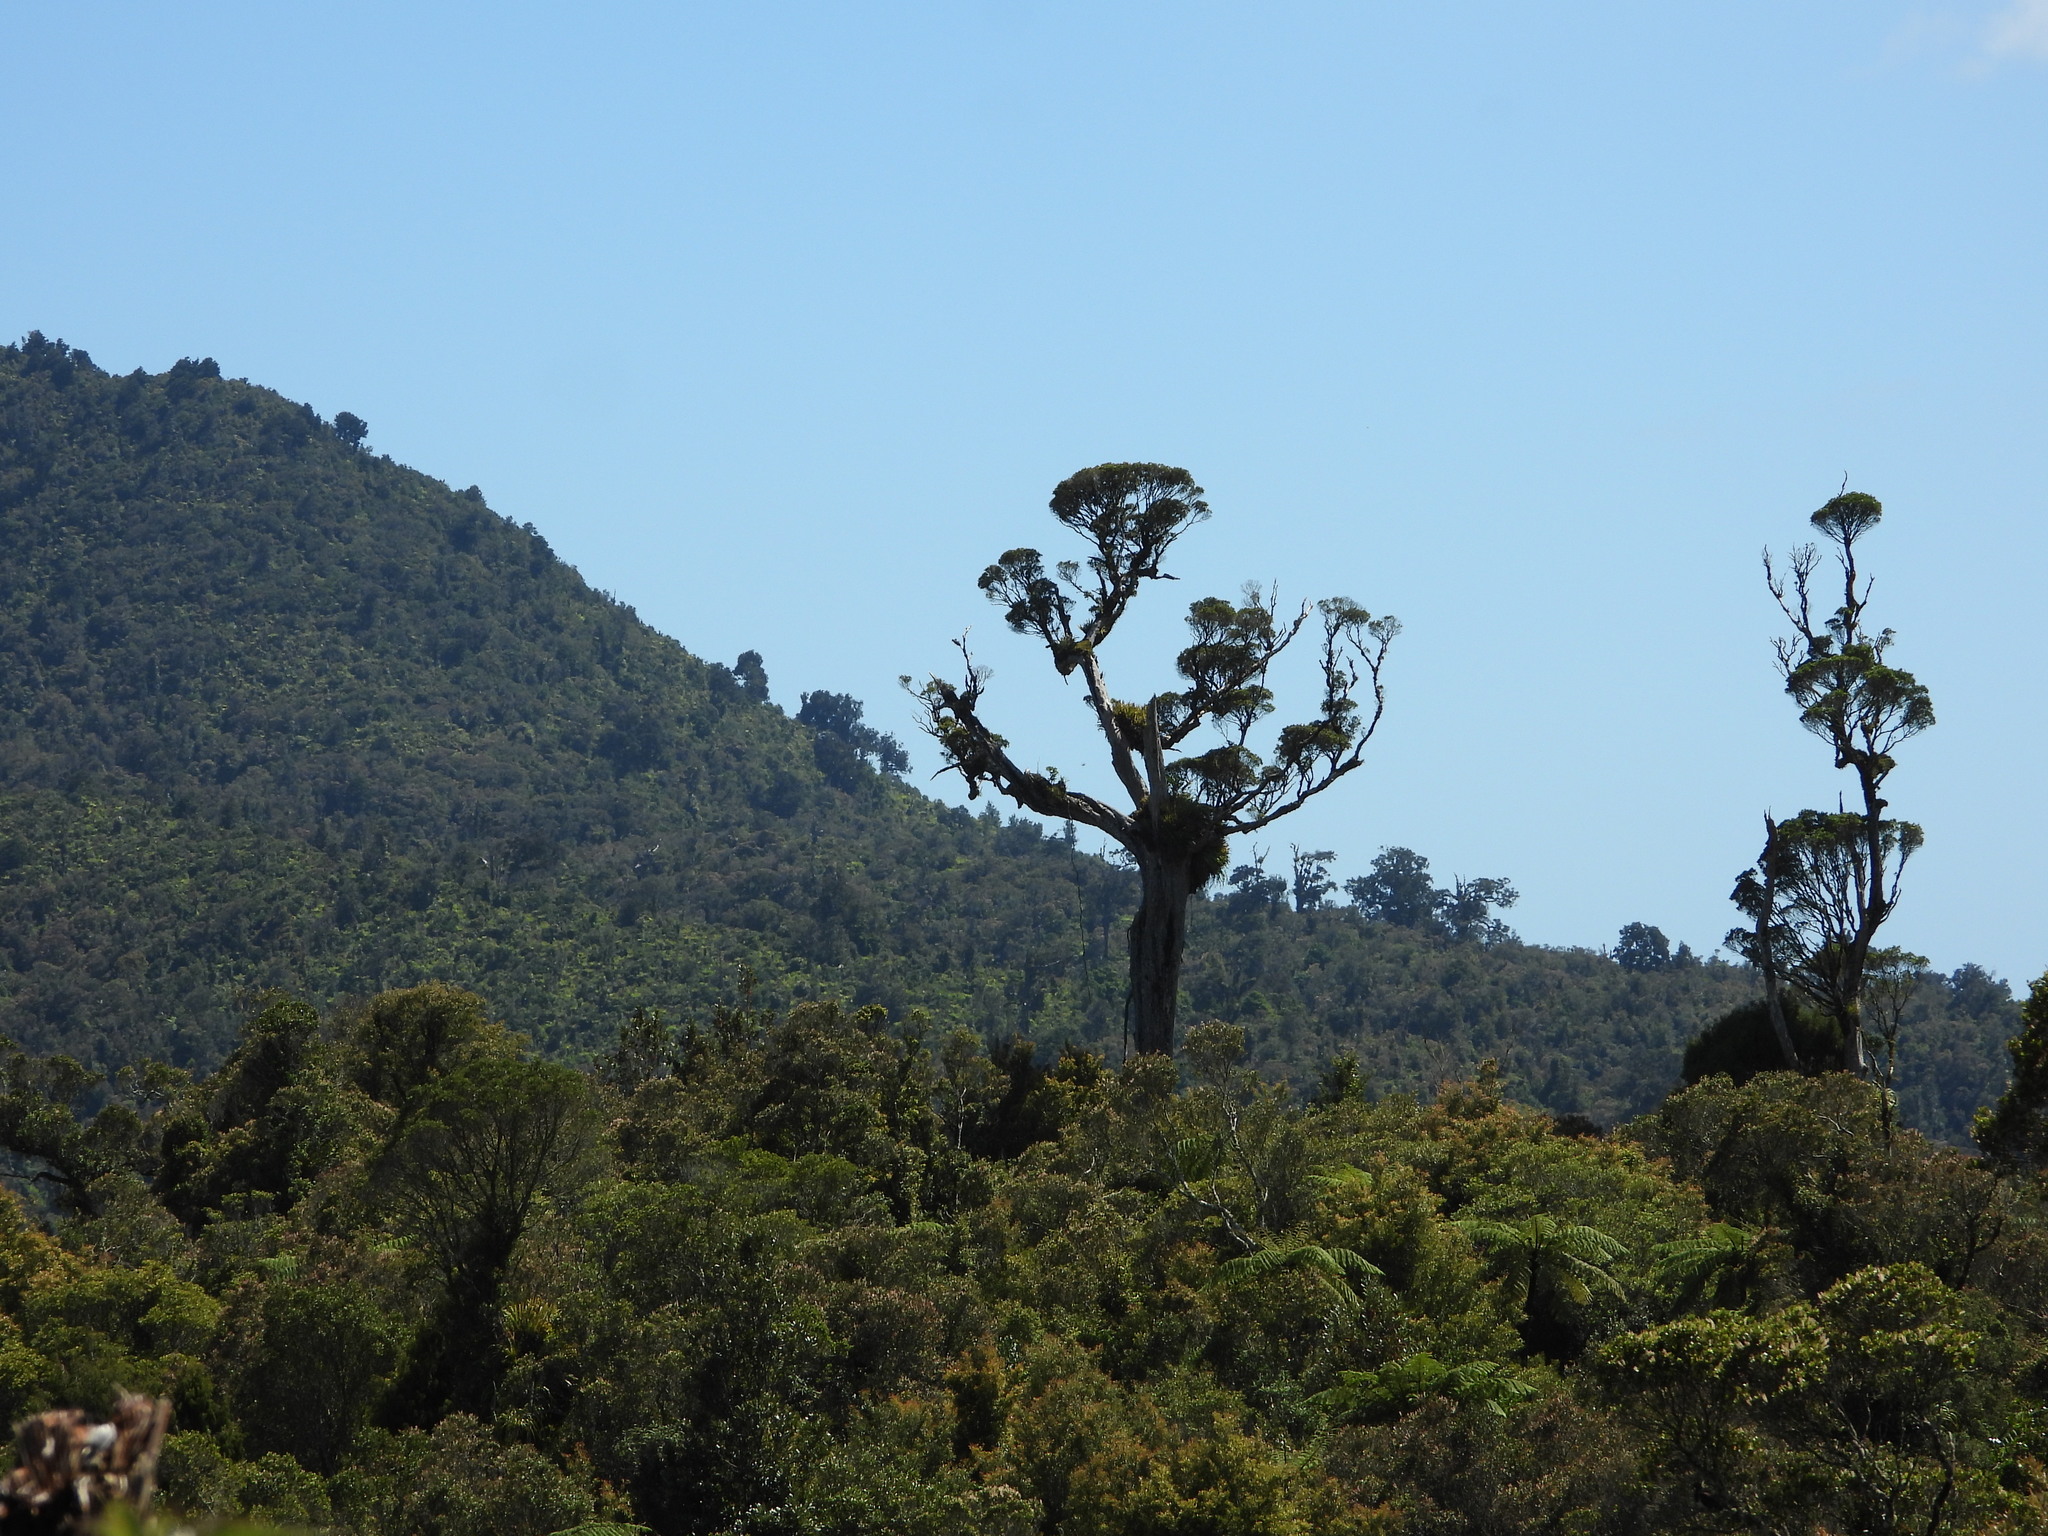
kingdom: Plantae
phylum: Tracheophyta
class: Magnoliopsida
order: Myrtales
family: Myrtaceae
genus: Metrosideros
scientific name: Metrosideros robusta
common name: Northern rata
